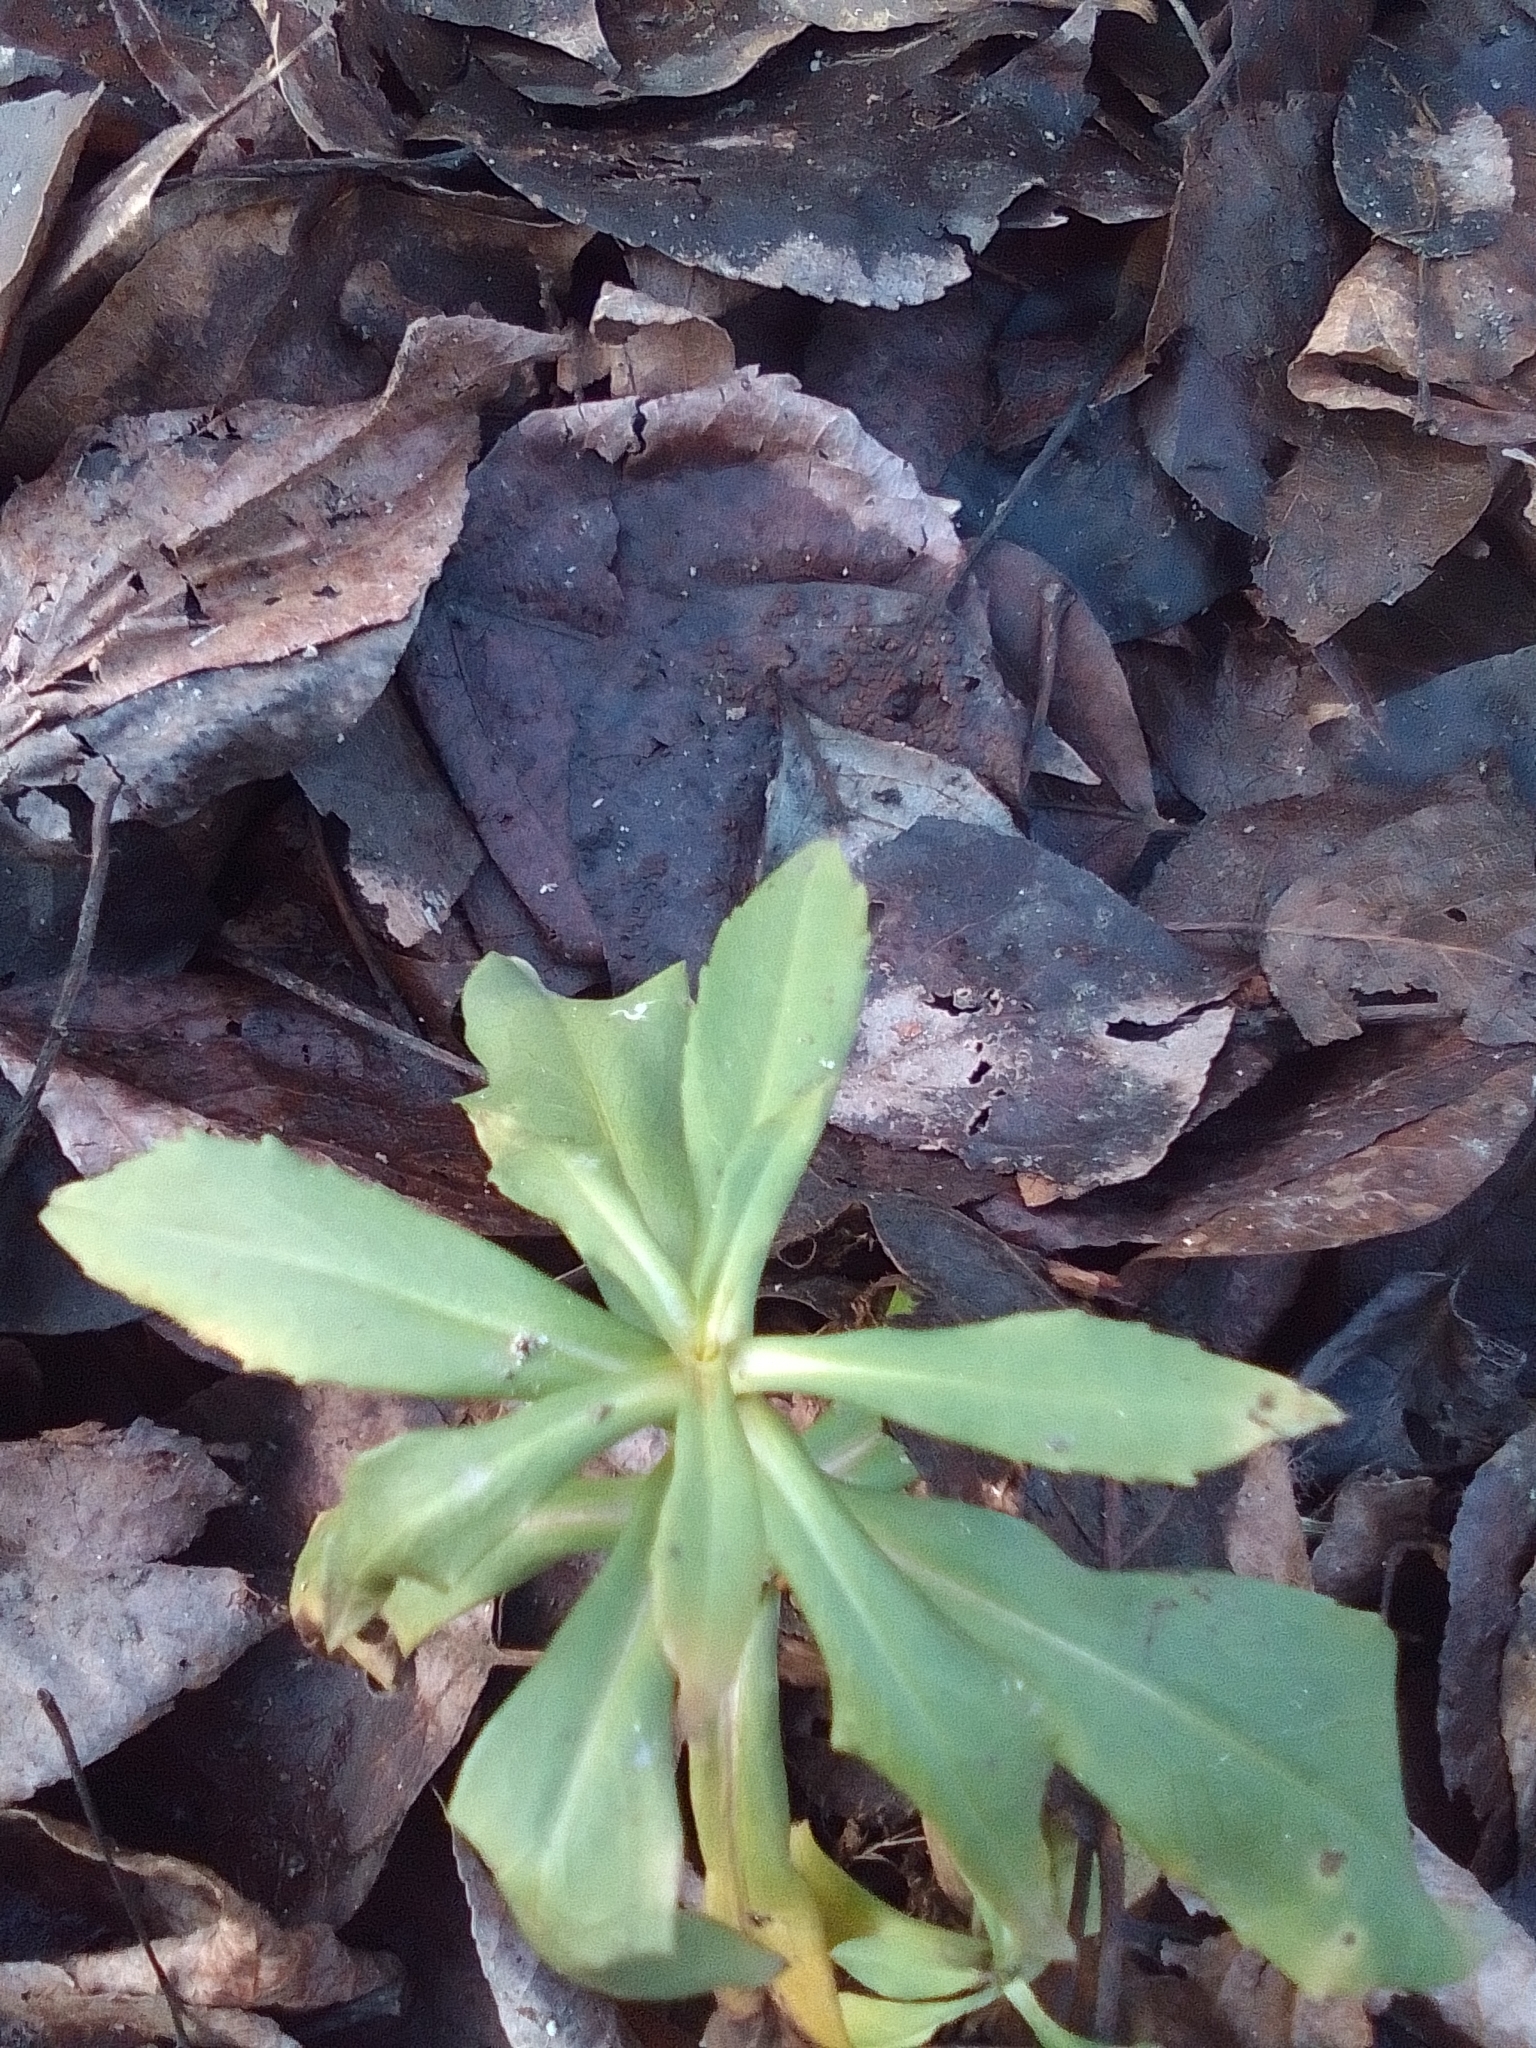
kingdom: Plantae
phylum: Tracheophyta
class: Magnoliopsida
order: Saxifragales
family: Crassulaceae
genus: Hylotelephium
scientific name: Hylotelephium telephium
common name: Live-forever
